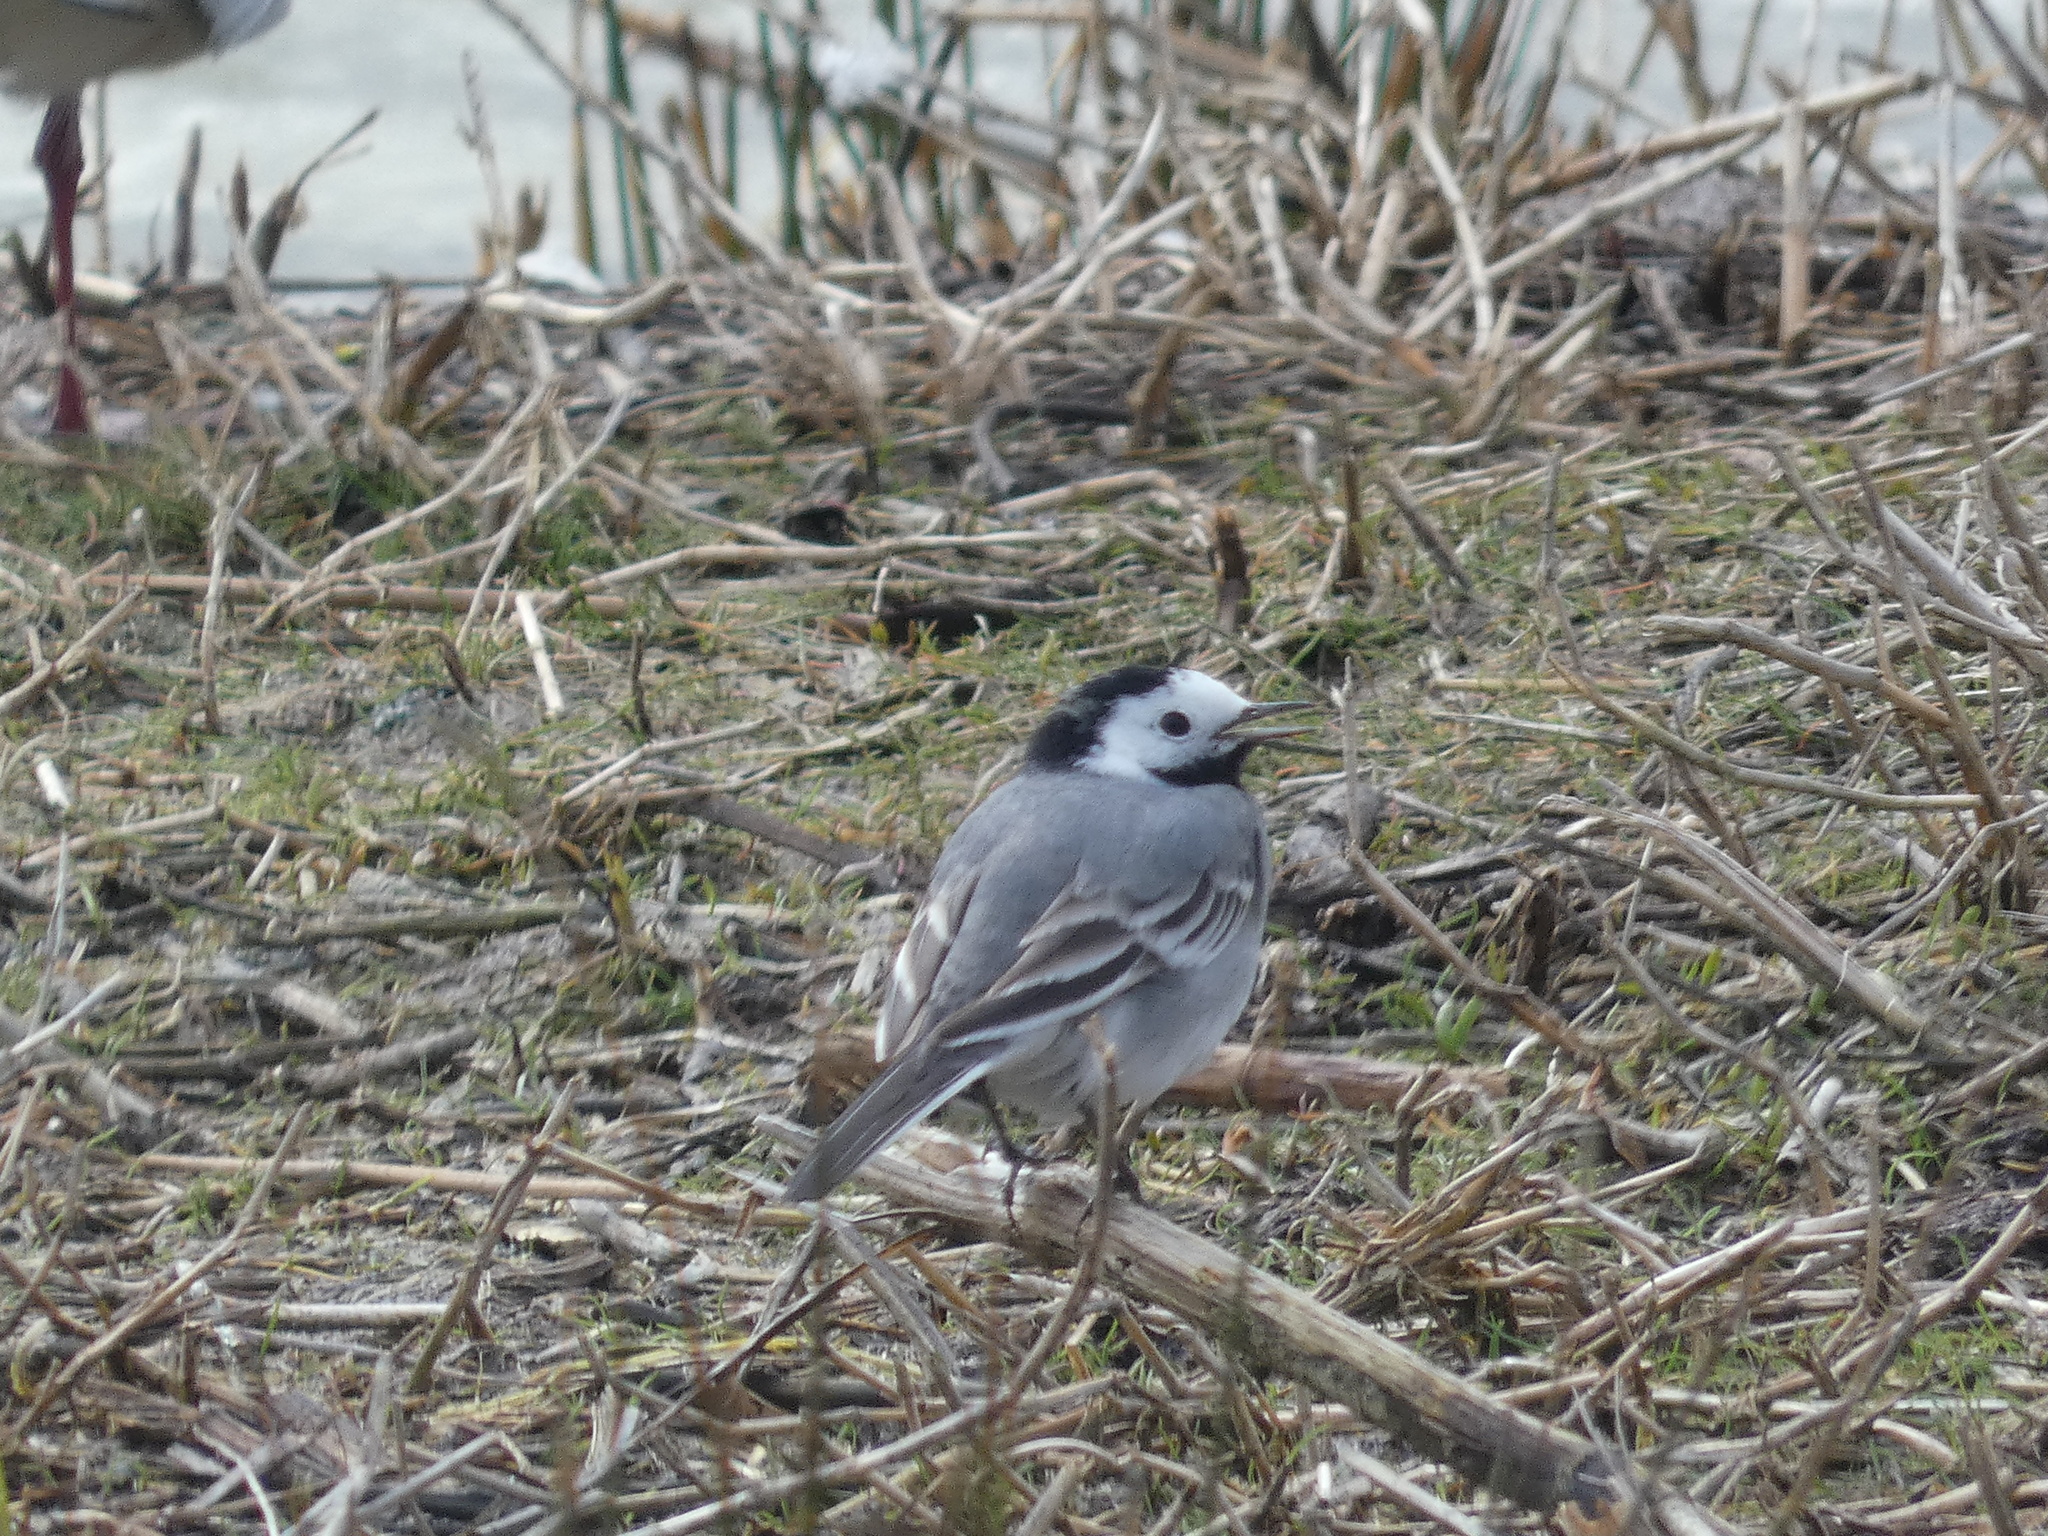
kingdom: Animalia
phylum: Chordata
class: Aves
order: Passeriformes
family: Motacillidae
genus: Motacilla
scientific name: Motacilla alba
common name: White wagtail
